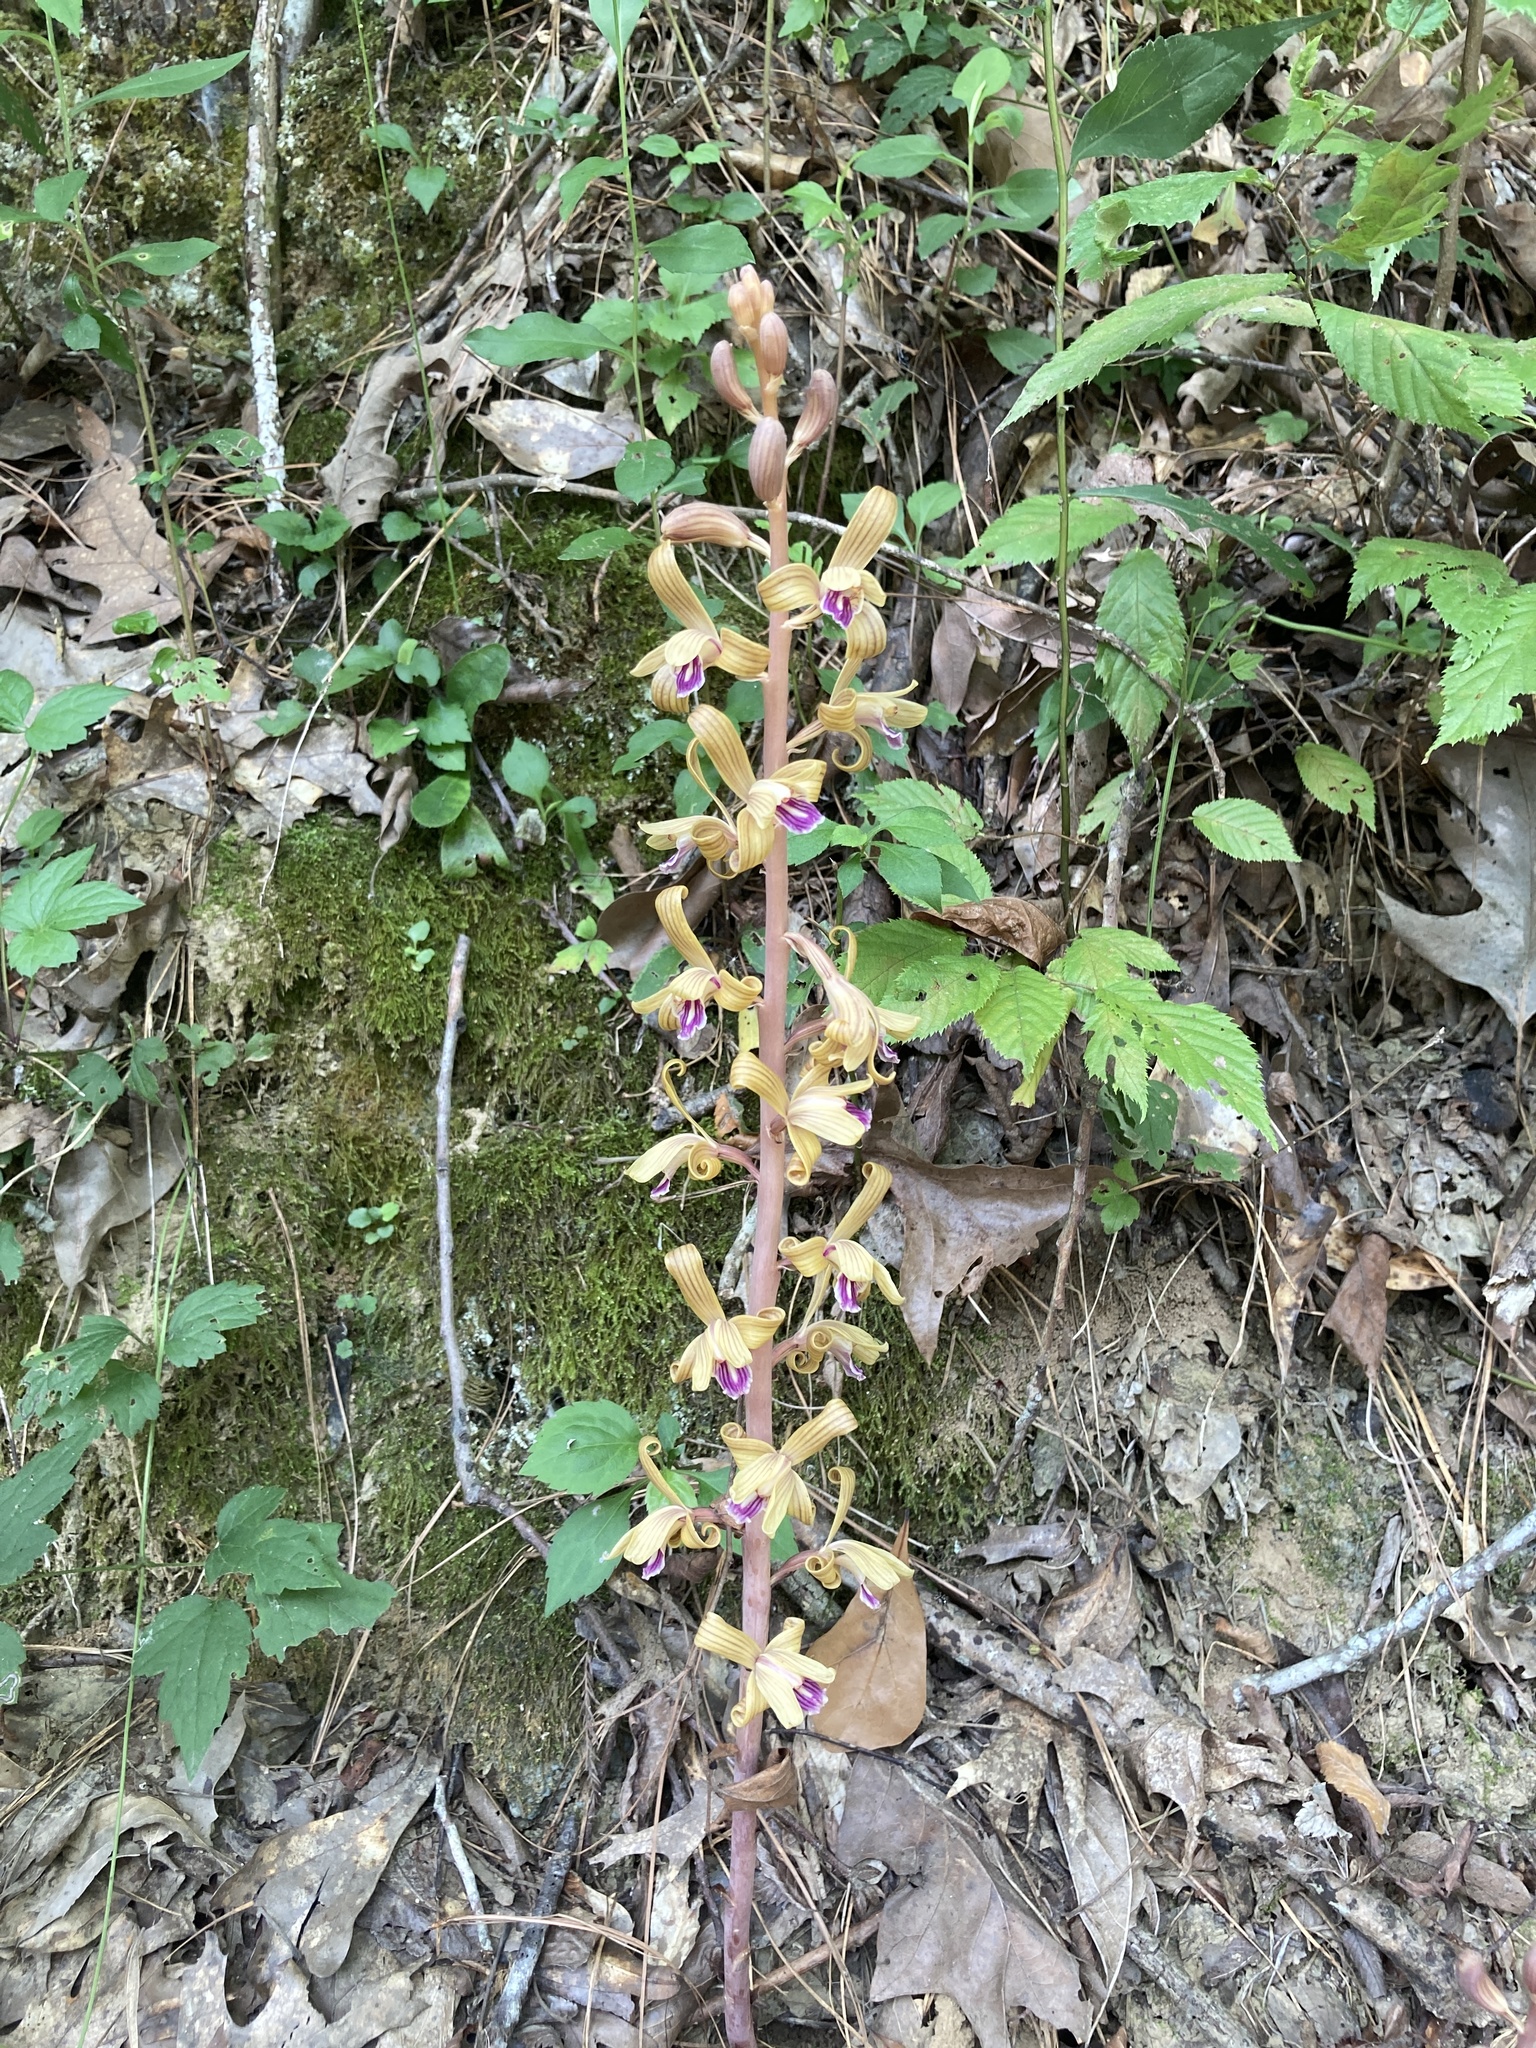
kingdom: Plantae
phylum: Tracheophyta
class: Liliopsida
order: Asparagales
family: Orchidaceae
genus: Bletia
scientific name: Bletia spicata
